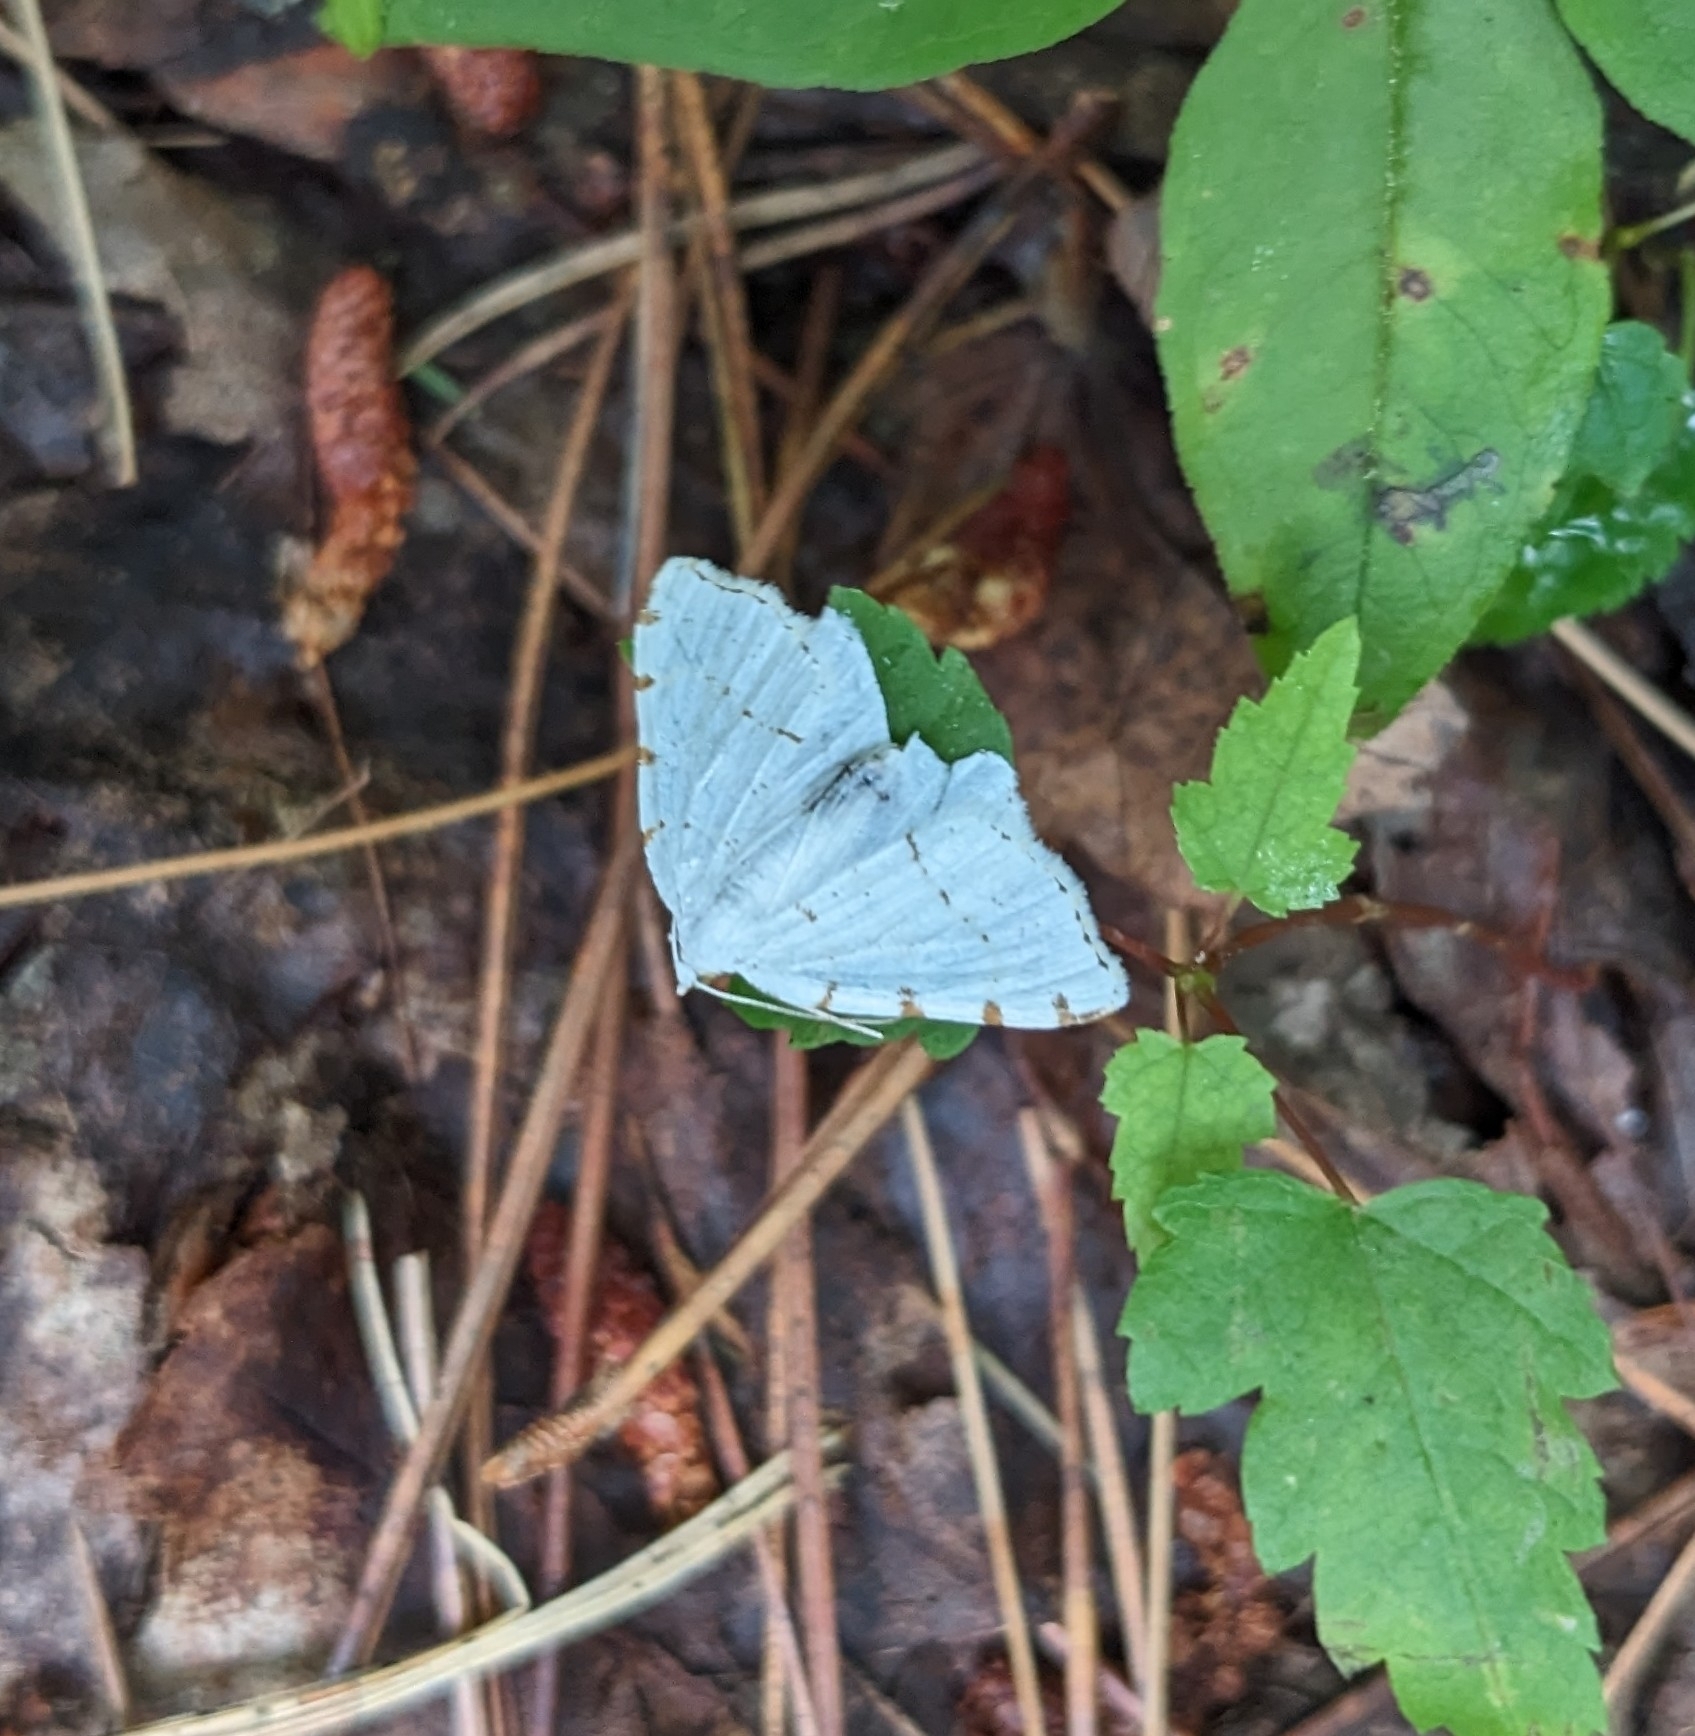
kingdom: Animalia
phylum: Arthropoda
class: Insecta
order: Lepidoptera
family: Geometridae
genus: Macaria
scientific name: Macaria pustularia
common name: Lesser maple spanworm moth
